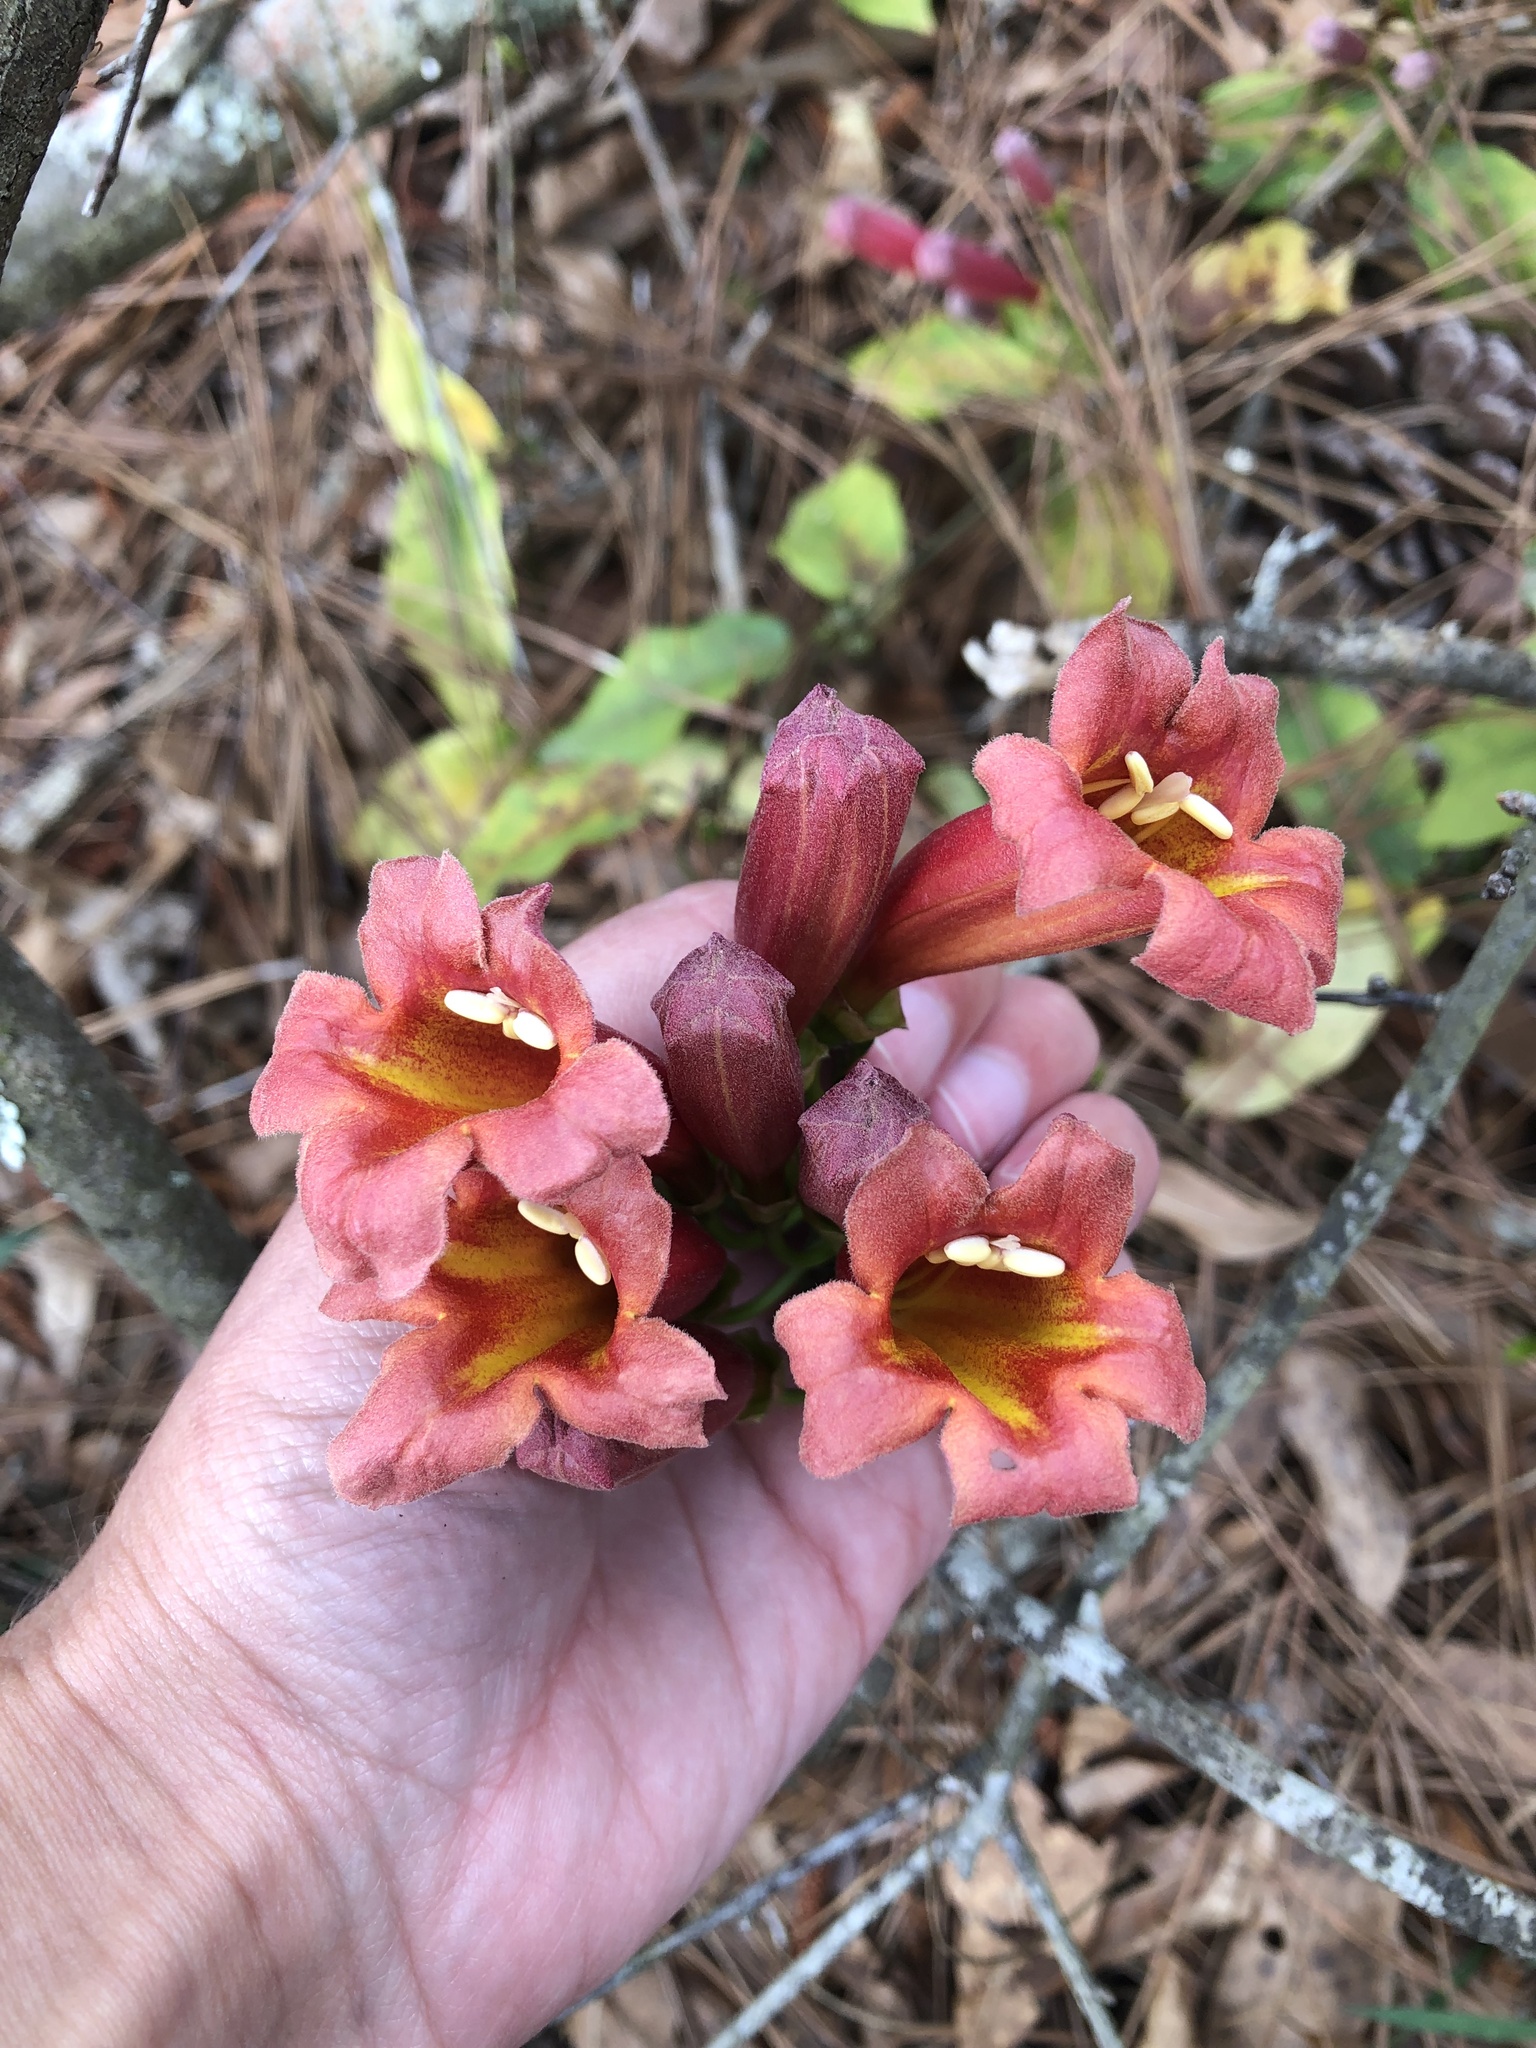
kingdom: Plantae
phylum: Tracheophyta
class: Magnoliopsida
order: Lamiales
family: Bignoniaceae
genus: Bignonia
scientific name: Bignonia capreolata
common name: Crossvine
